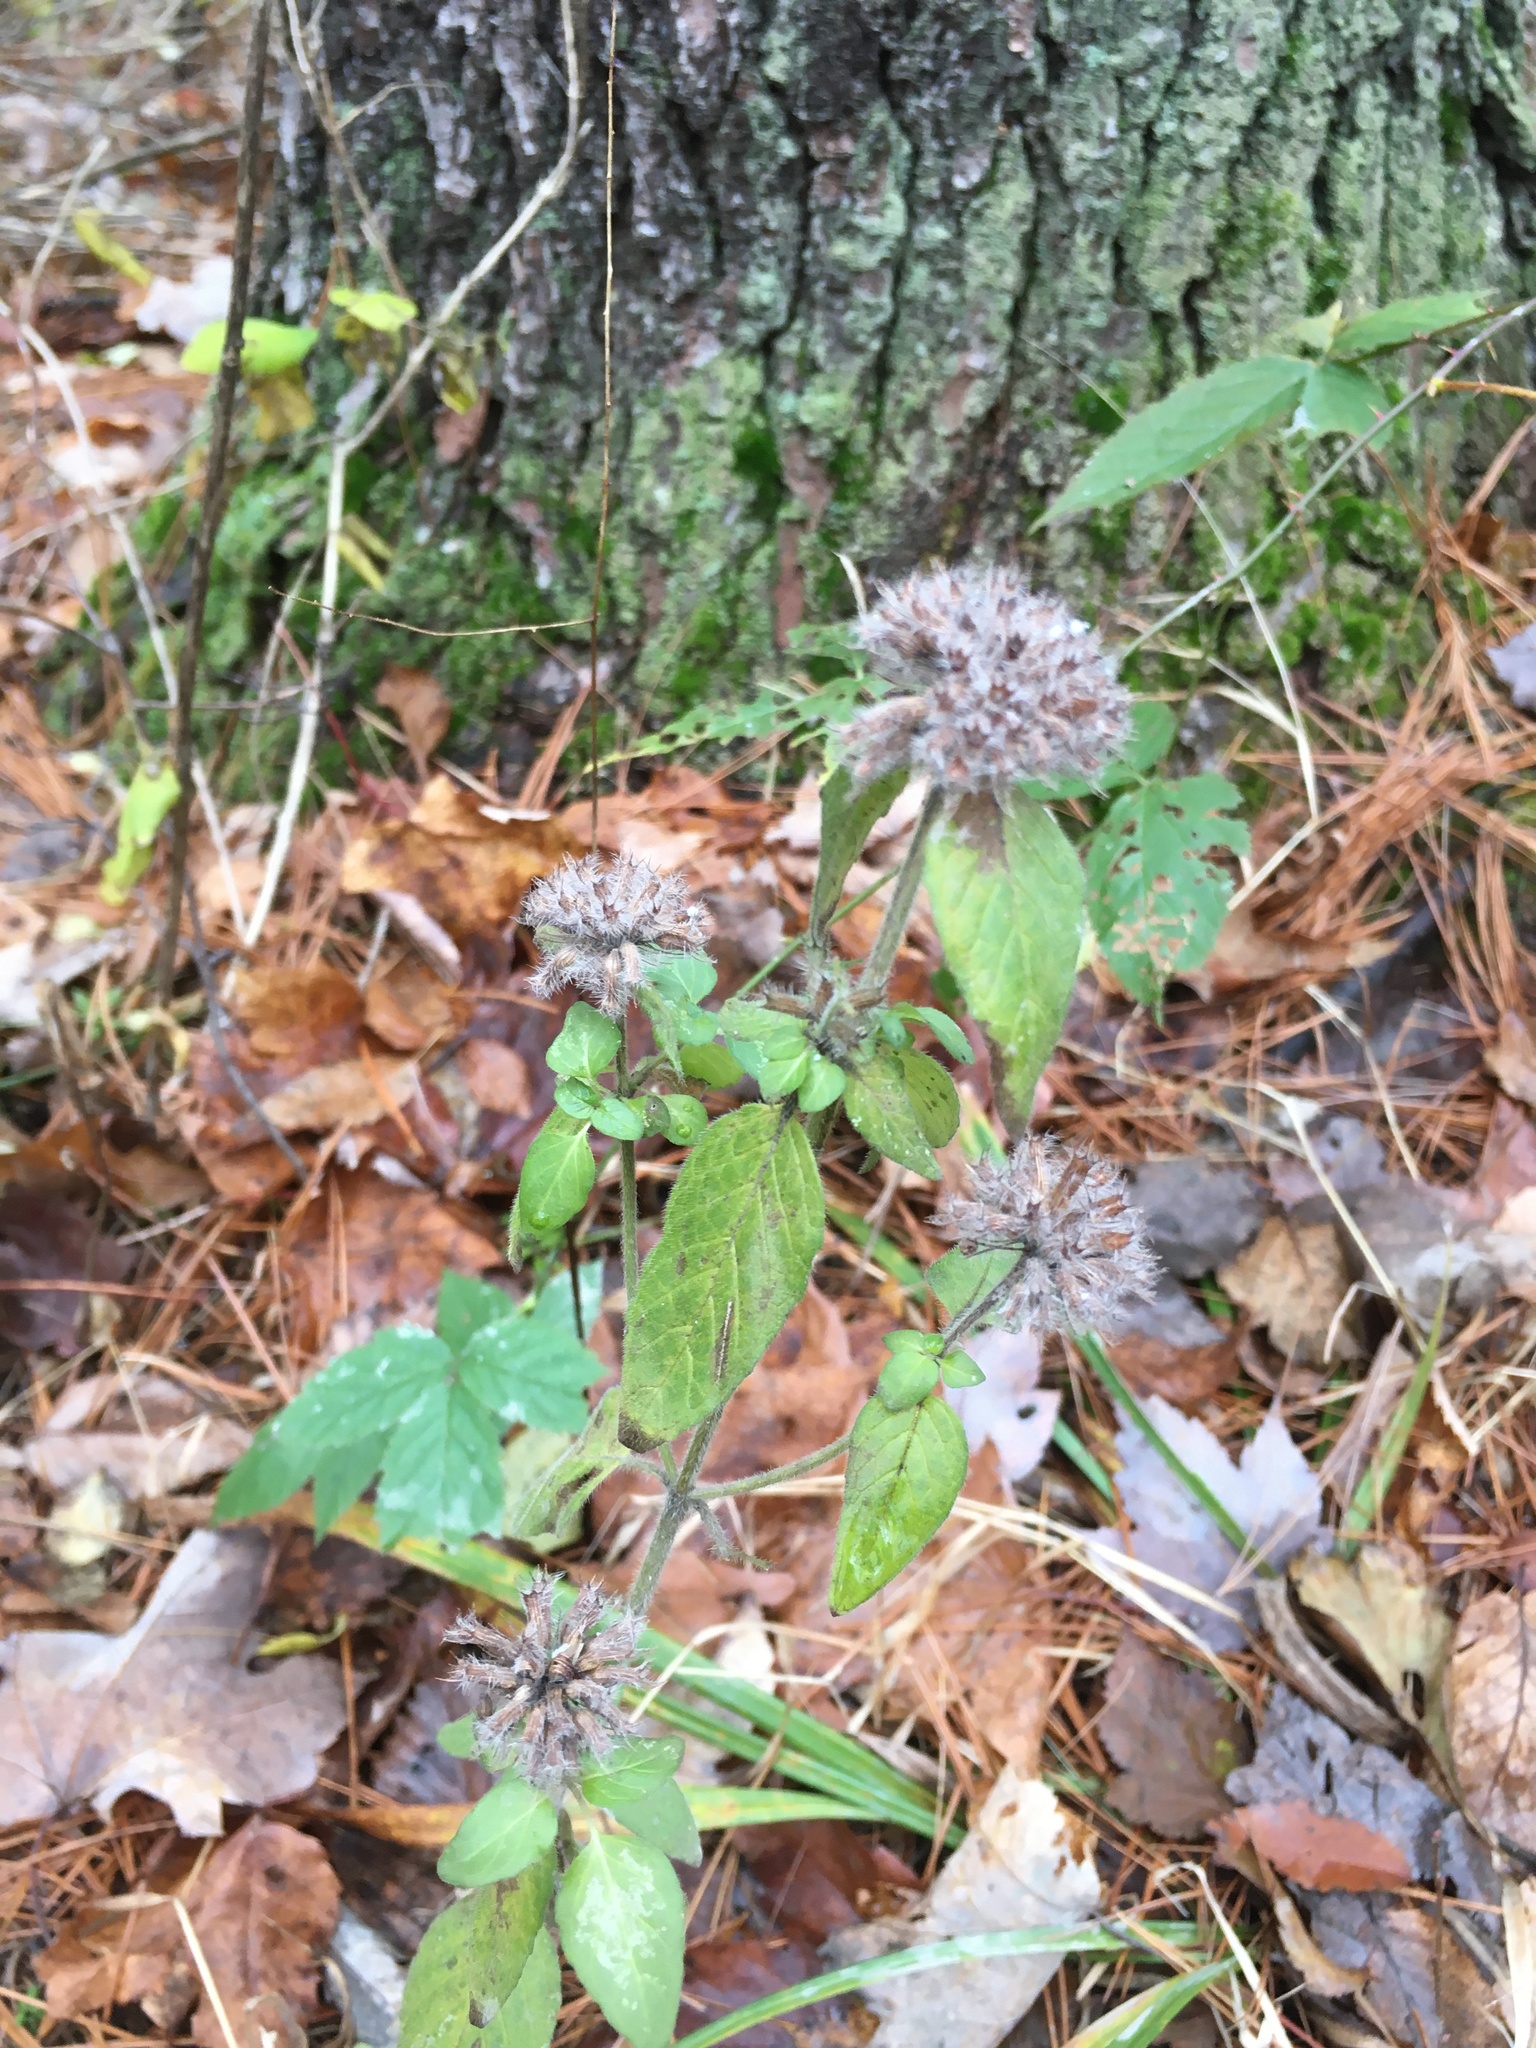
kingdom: Plantae
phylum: Tracheophyta
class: Magnoliopsida
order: Lamiales
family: Lamiaceae
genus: Clinopodium
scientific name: Clinopodium vulgare
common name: Wild basil
